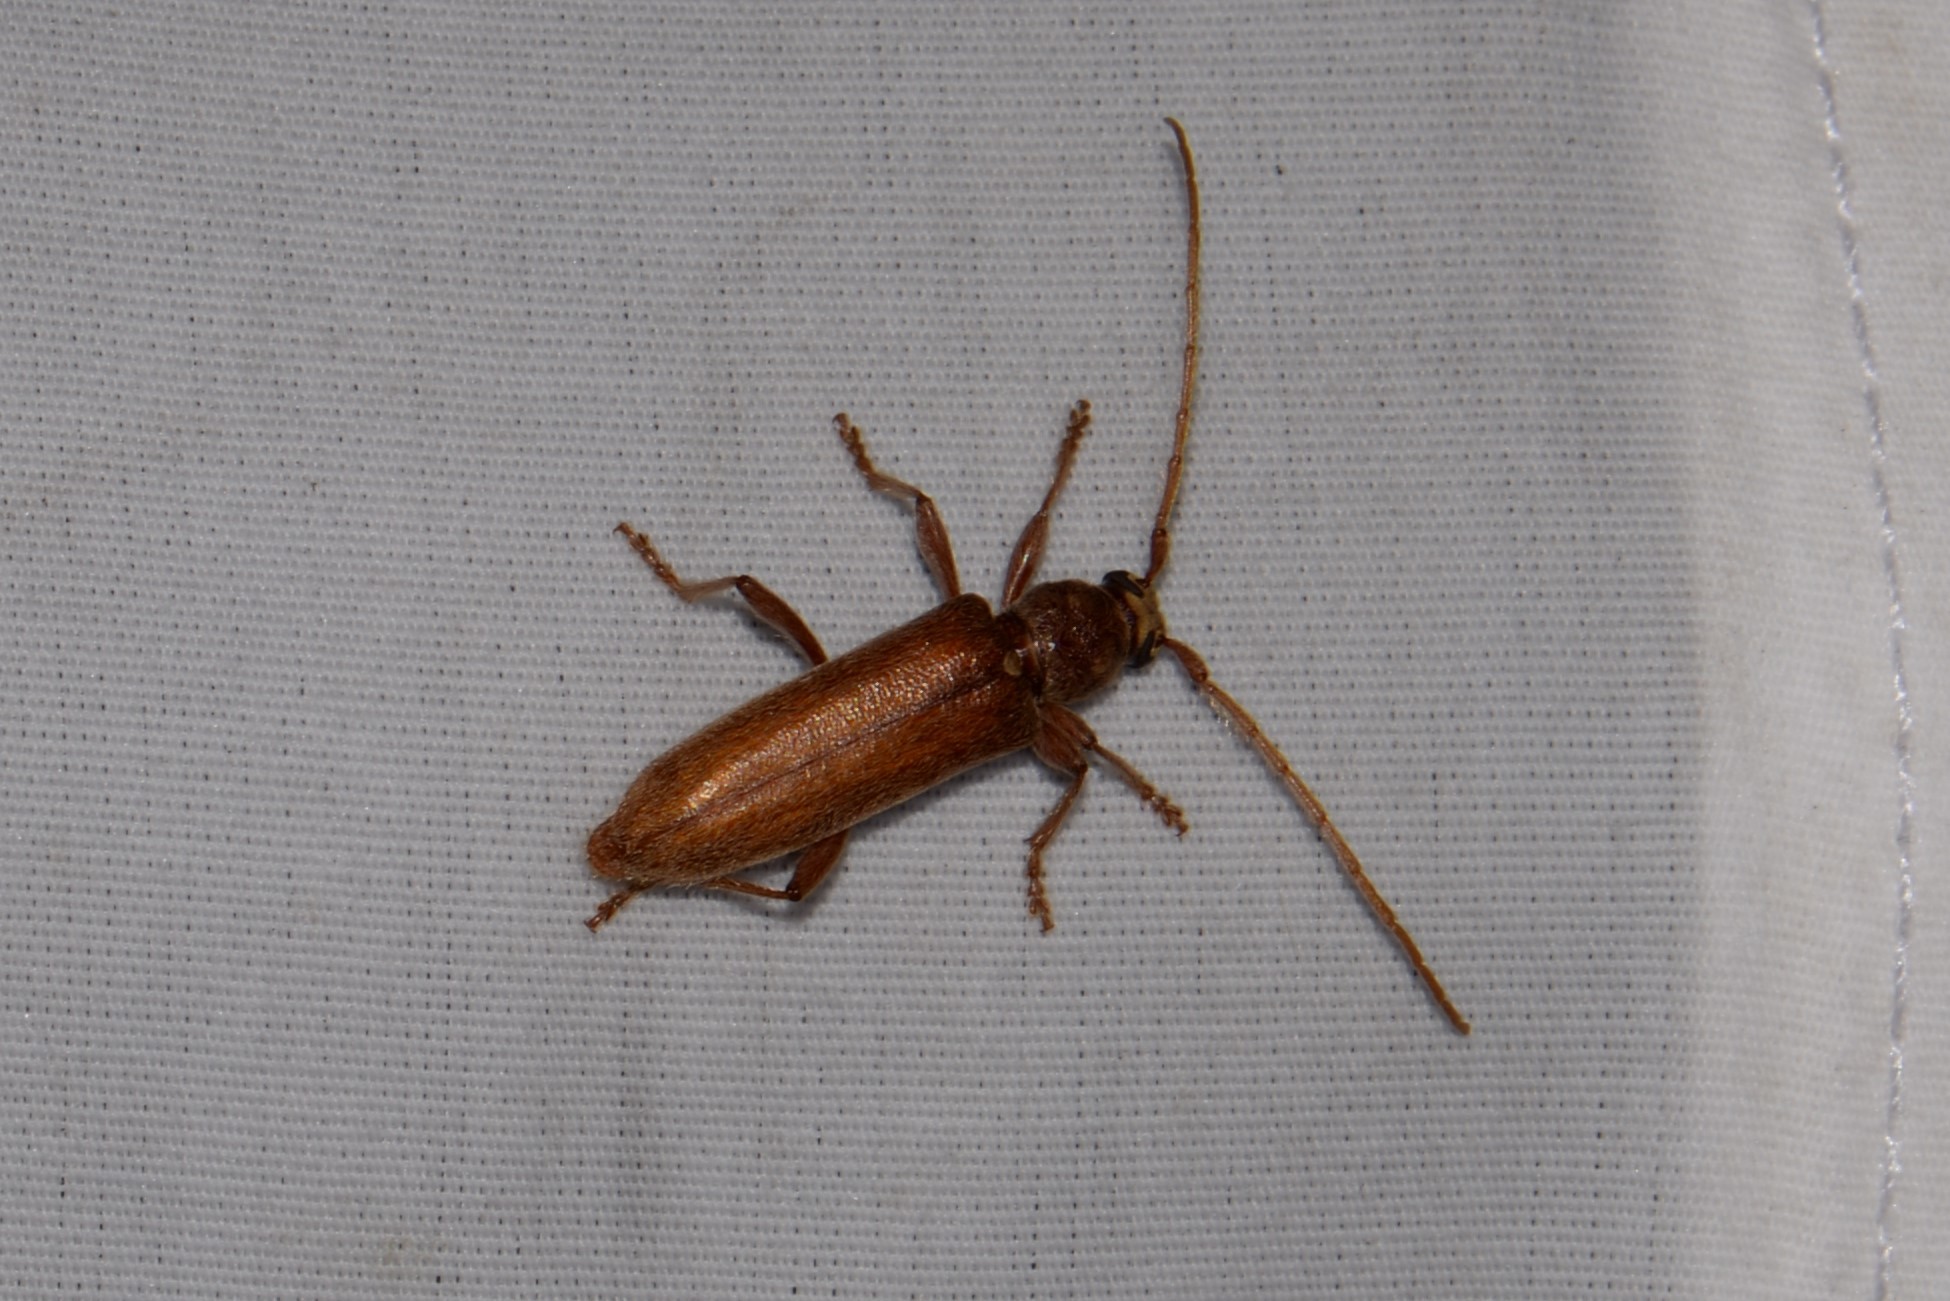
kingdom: Animalia
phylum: Arthropoda
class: Insecta
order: Coleoptera
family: Cerambycidae
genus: Hesperophanes
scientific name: Hesperophanes pubescens
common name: Longhorned wood-boring beetle
